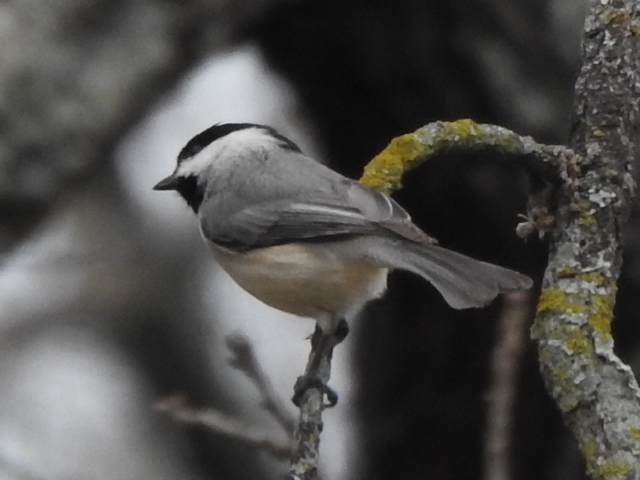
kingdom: Animalia
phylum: Chordata
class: Aves
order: Passeriformes
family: Paridae
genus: Poecile
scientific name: Poecile carolinensis
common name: Carolina chickadee
